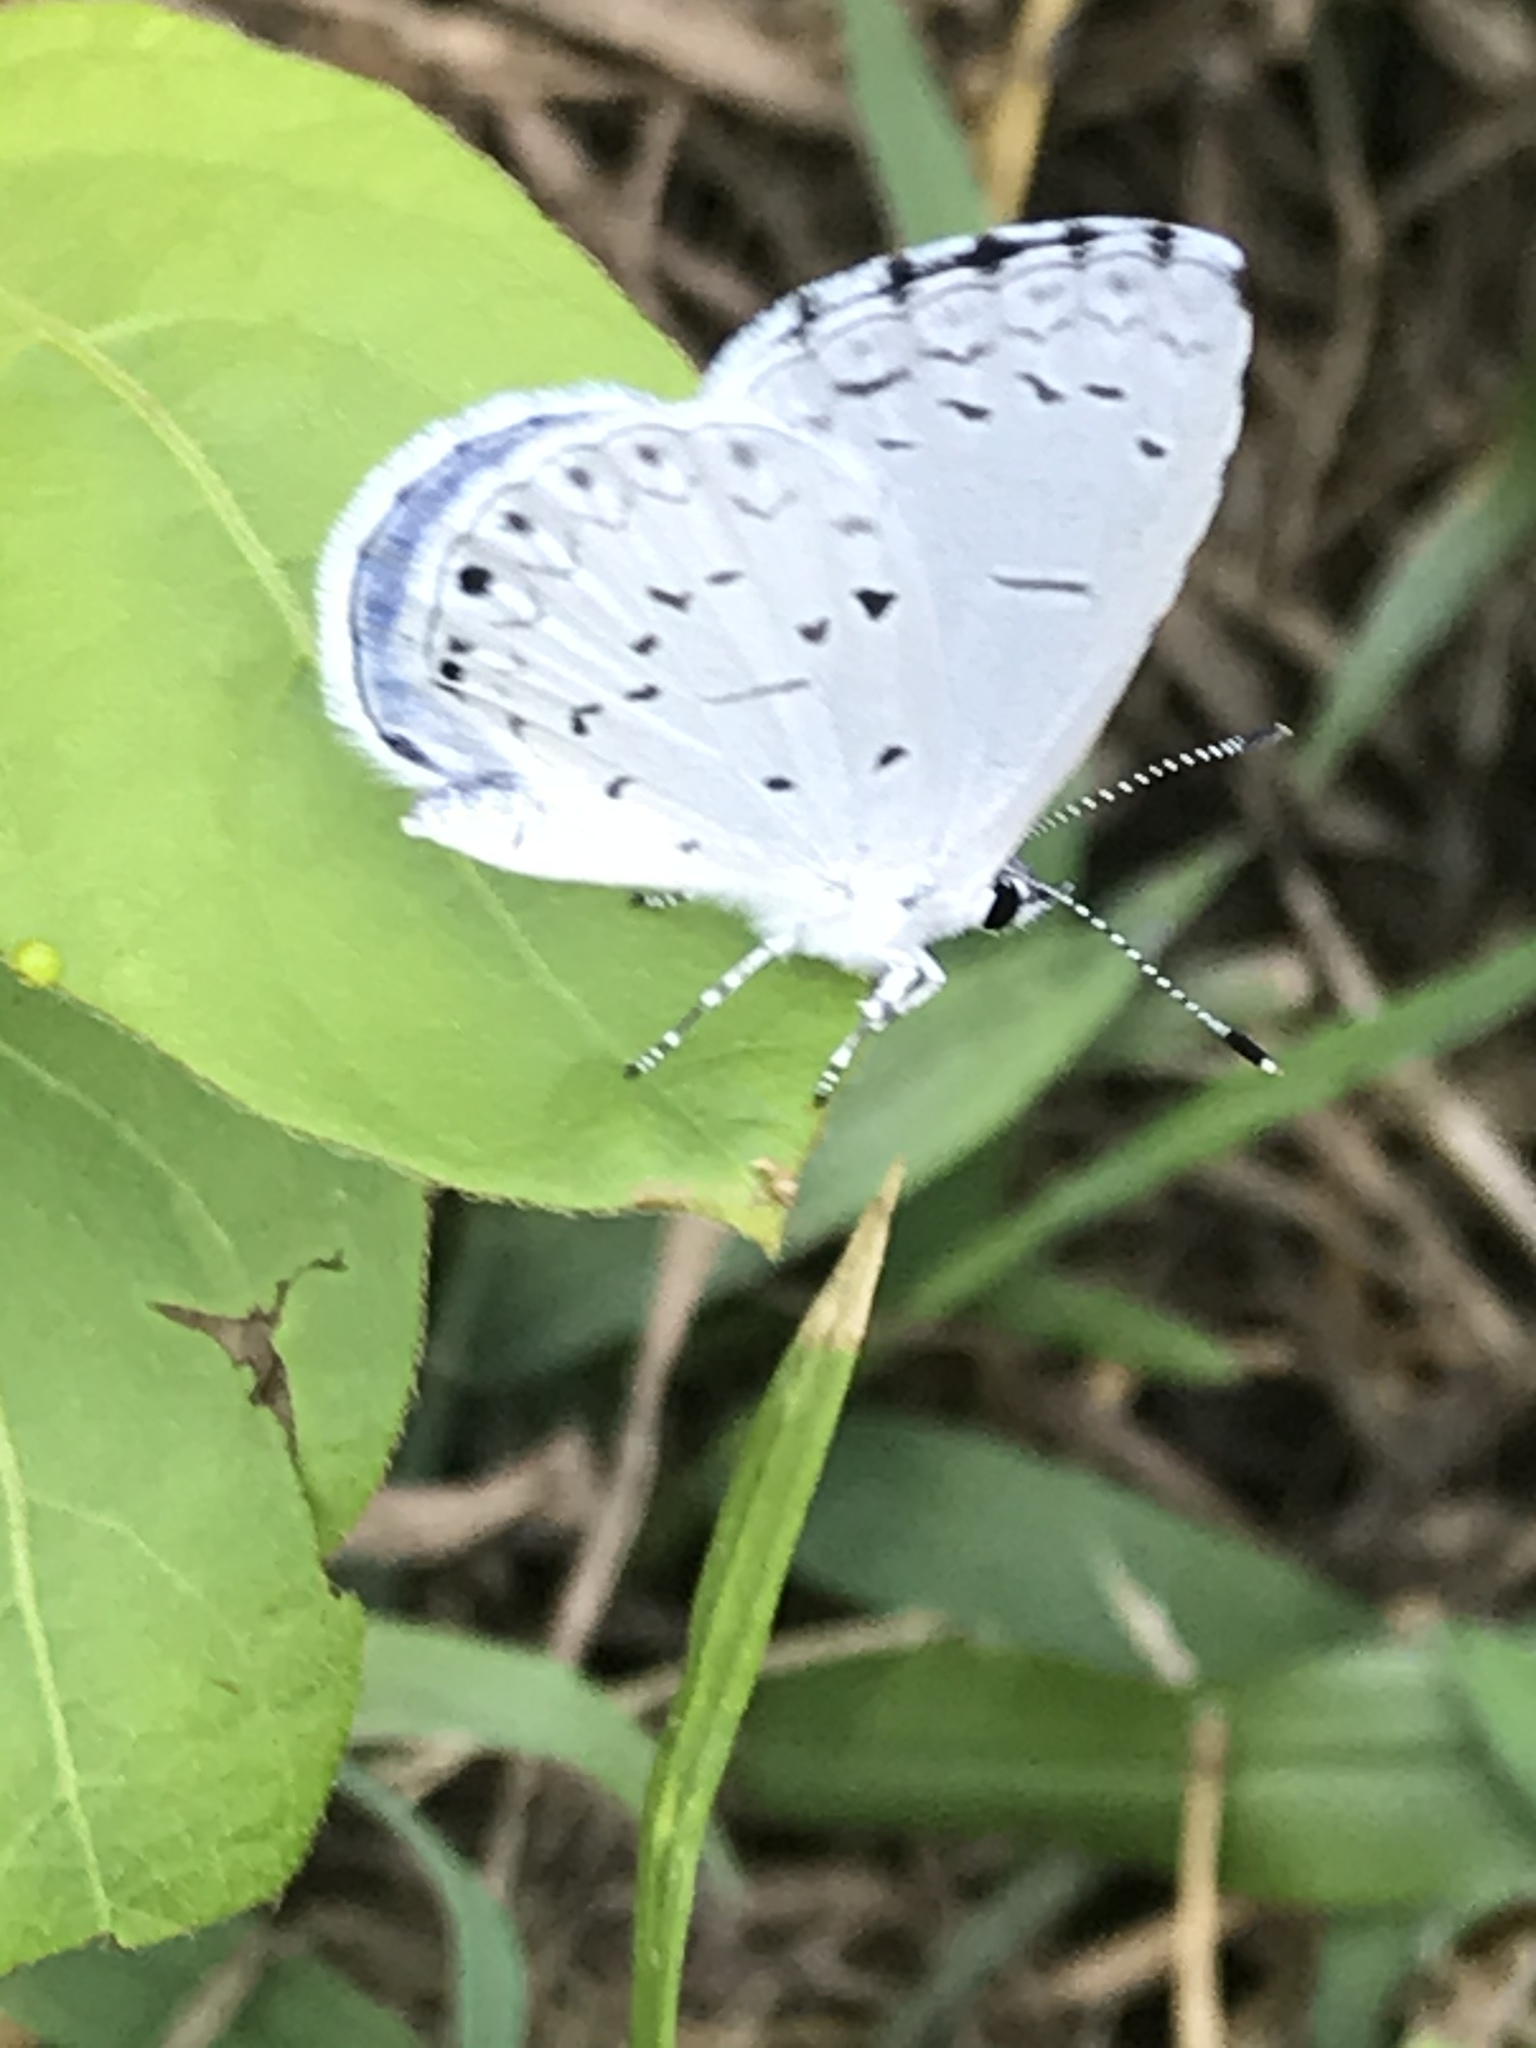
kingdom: Animalia
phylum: Arthropoda
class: Insecta
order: Lepidoptera
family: Lycaenidae
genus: Cyaniris
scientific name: Cyaniris neglecta
